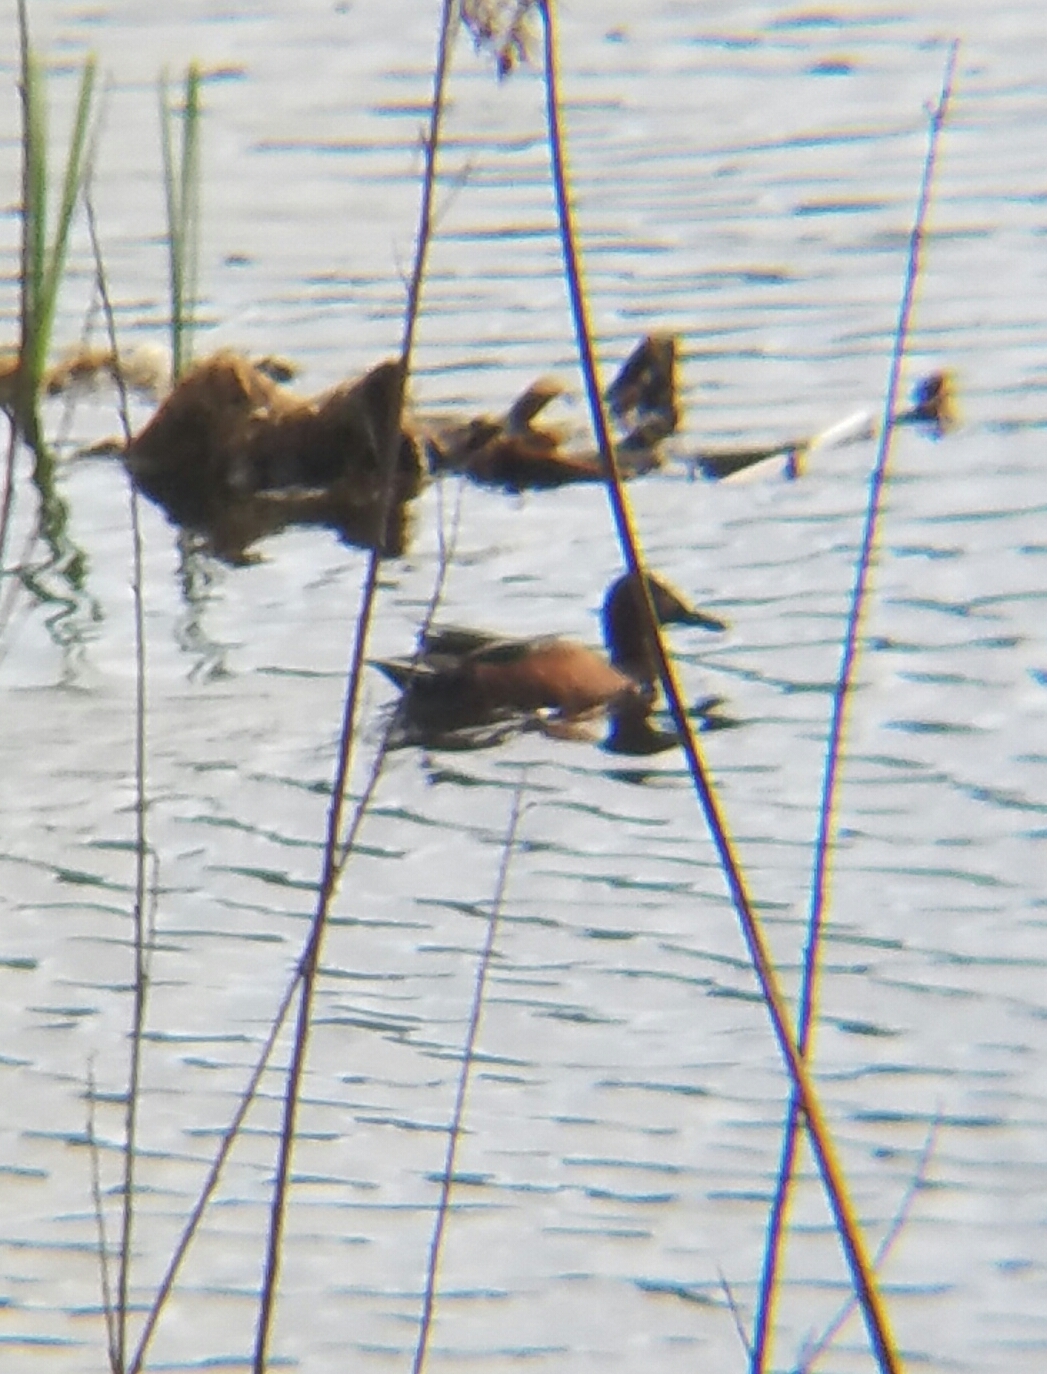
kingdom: Animalia
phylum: Chordata
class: Aves
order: Anseriformes
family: Anatidae
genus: Spatula
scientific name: Spatula cyanoptera
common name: Cinnamon teal
